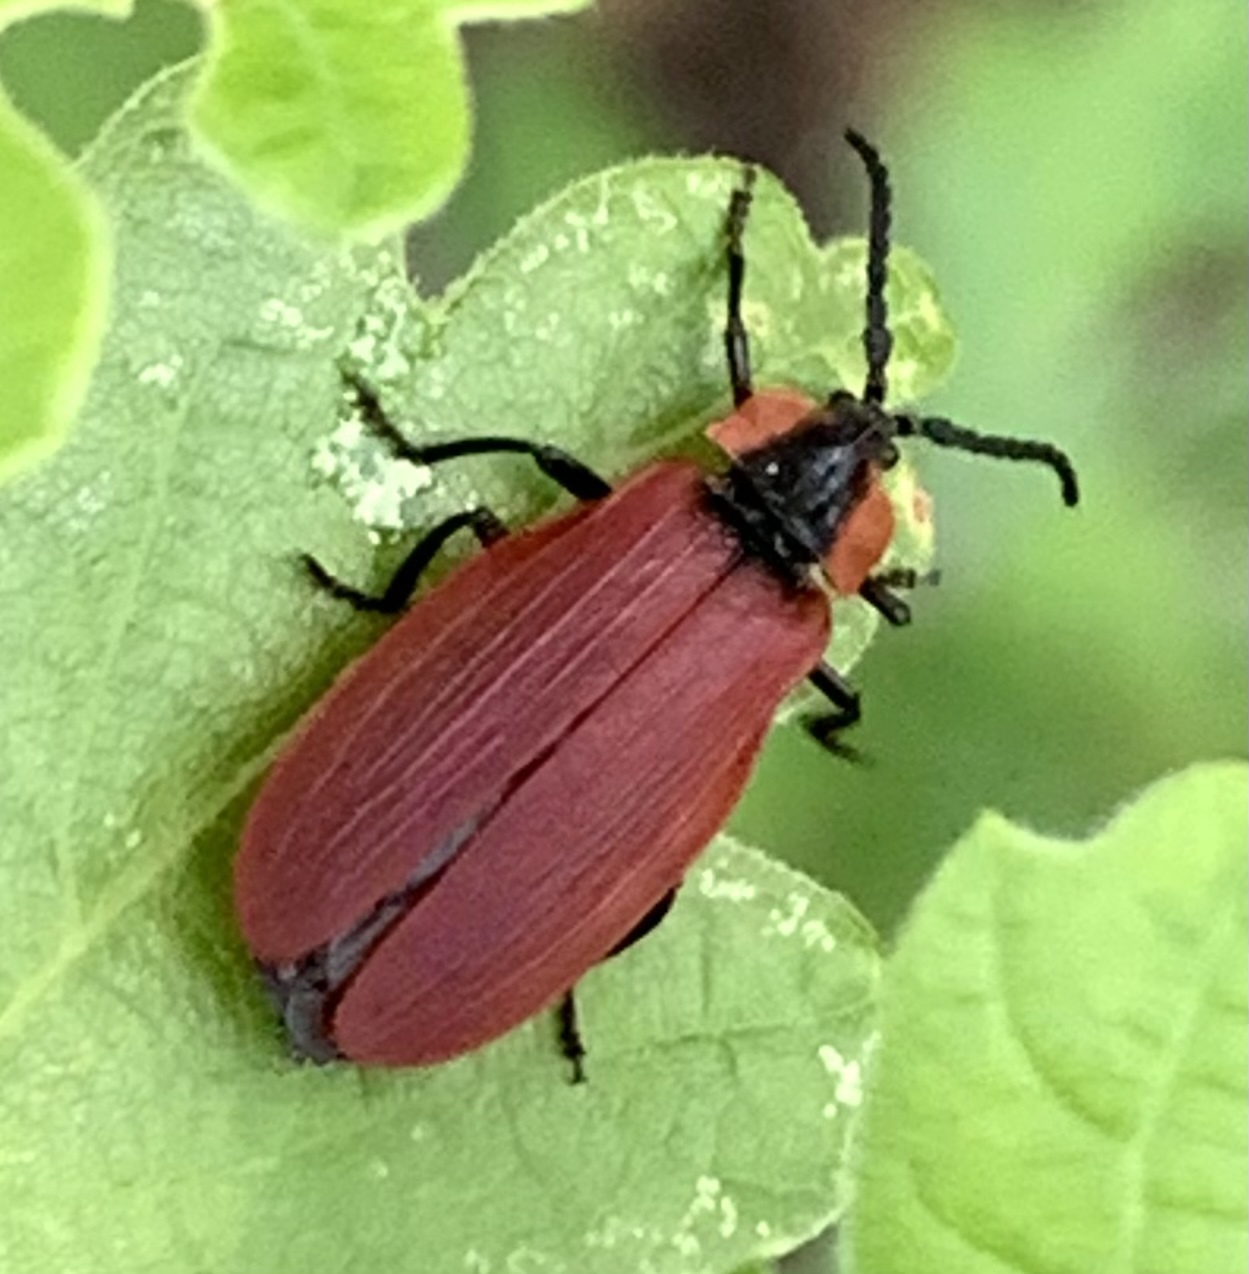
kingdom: Animalia
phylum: Arthropoda
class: Insecta
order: Coleoptera
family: Lycidae
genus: Lycus
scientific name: Lycus sanguinipennis
